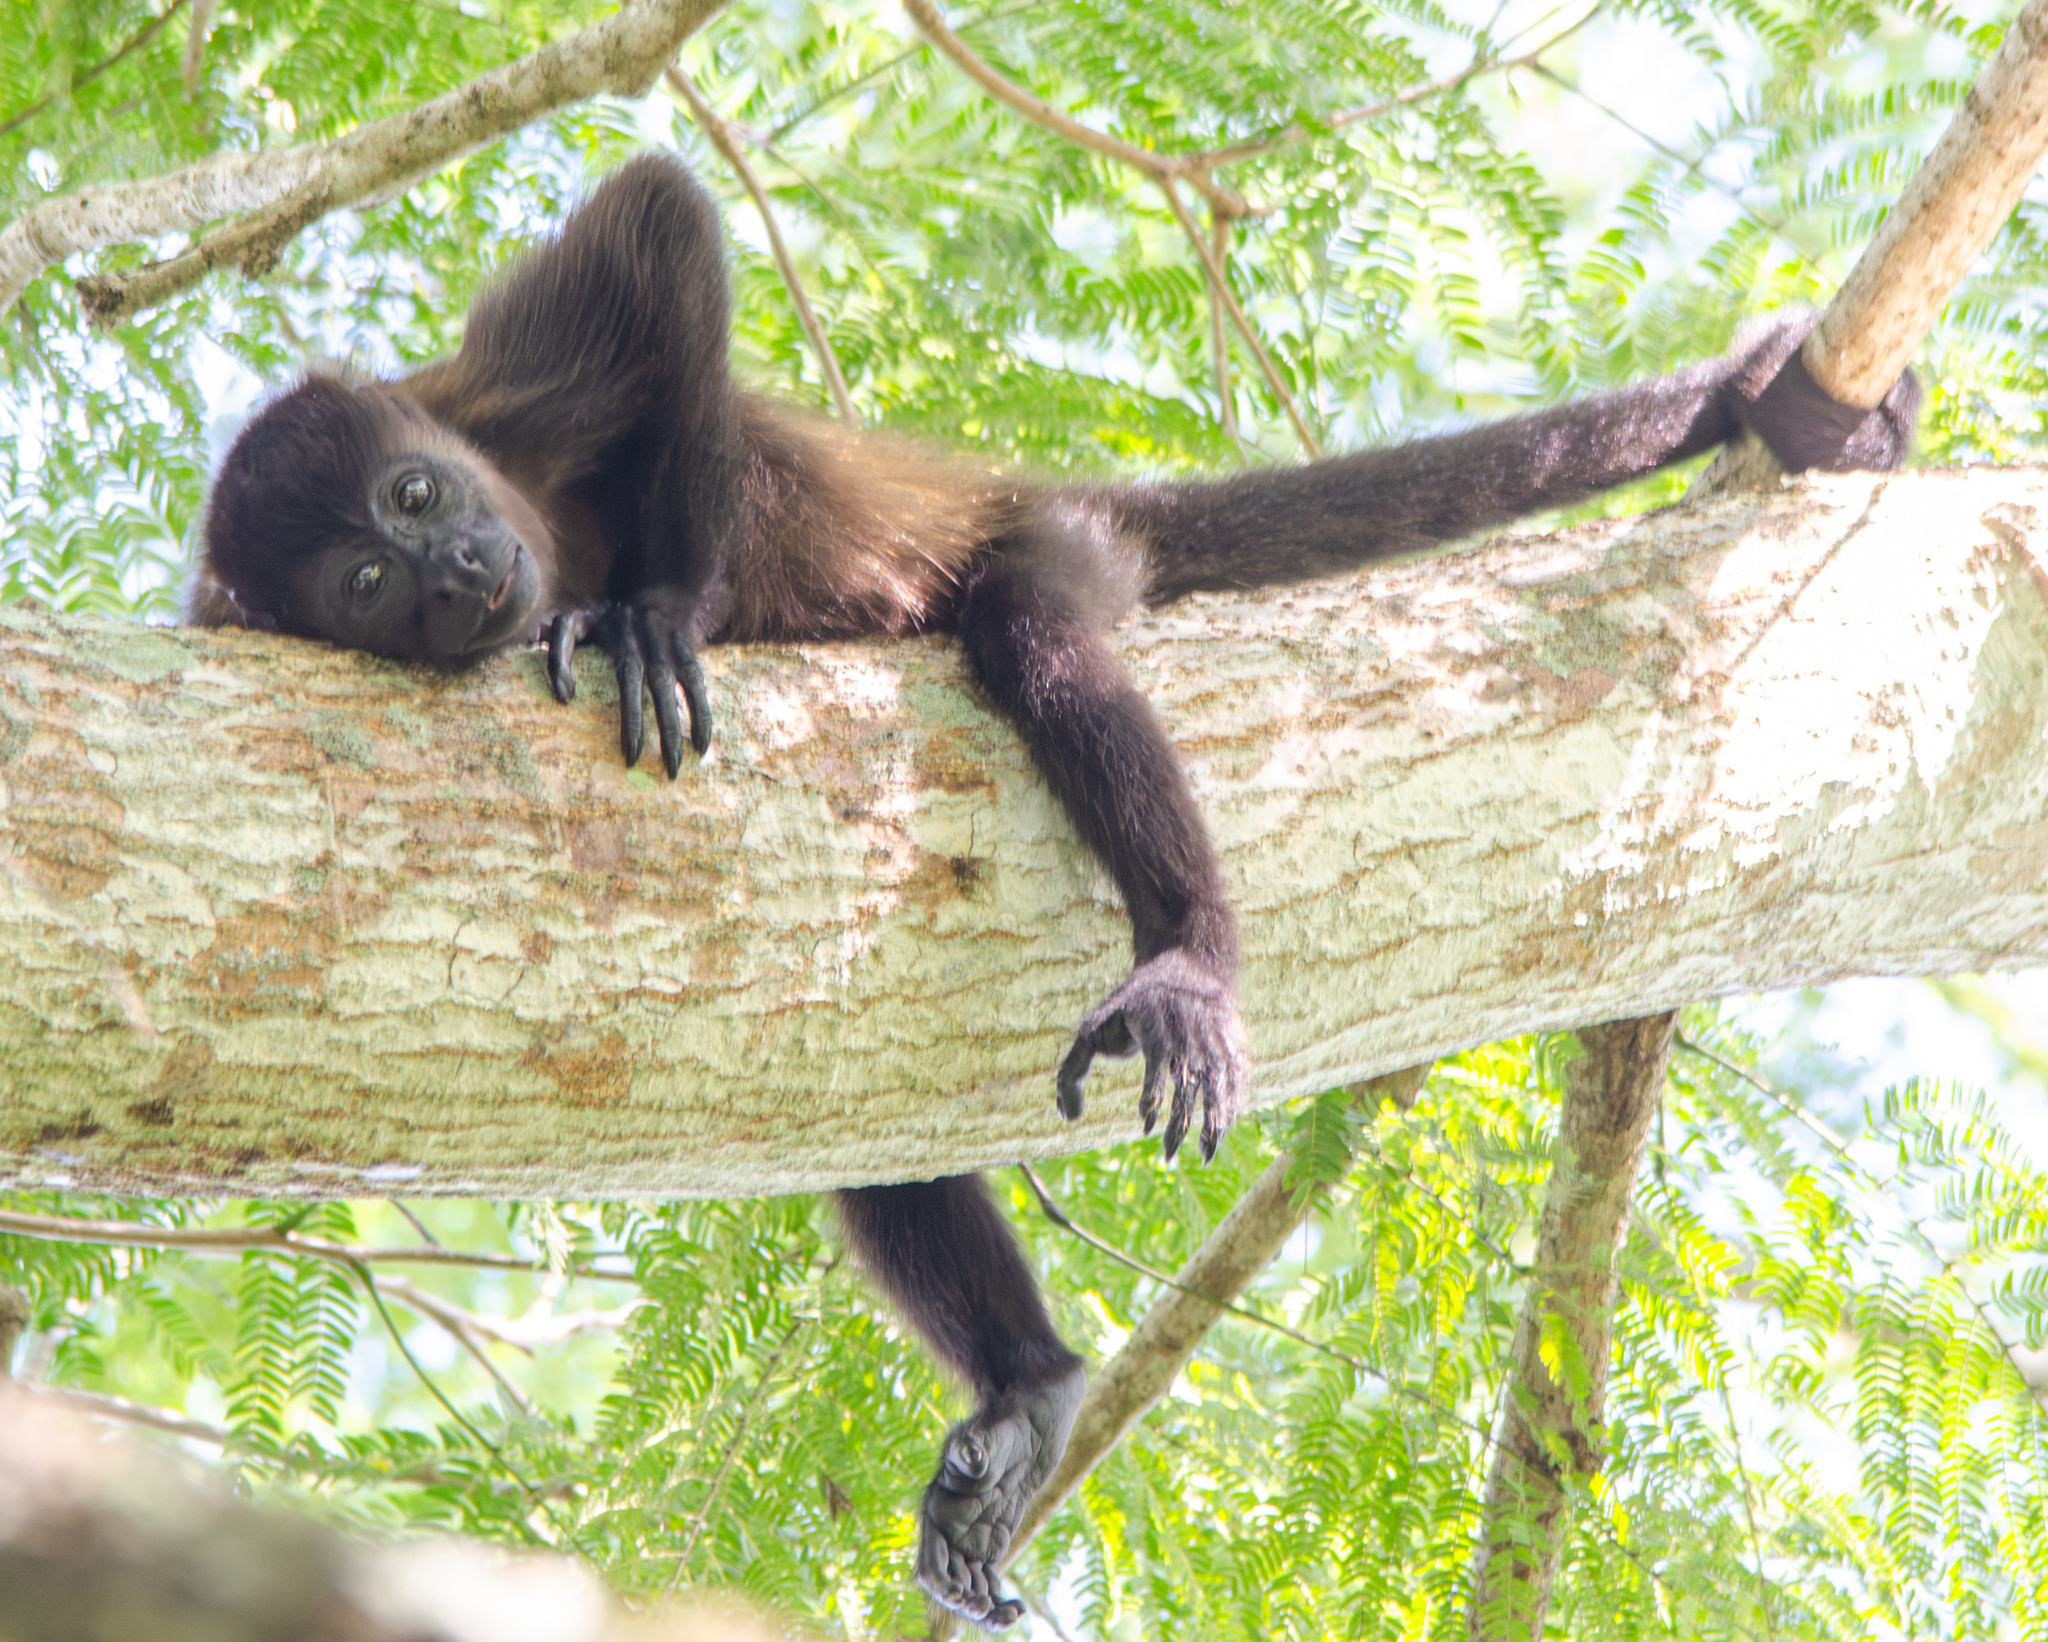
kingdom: Animalia
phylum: Chordata
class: Mammalia
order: Primates
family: Atelidae
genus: Alouatta
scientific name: Alouatta palliata
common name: Mantled howler
